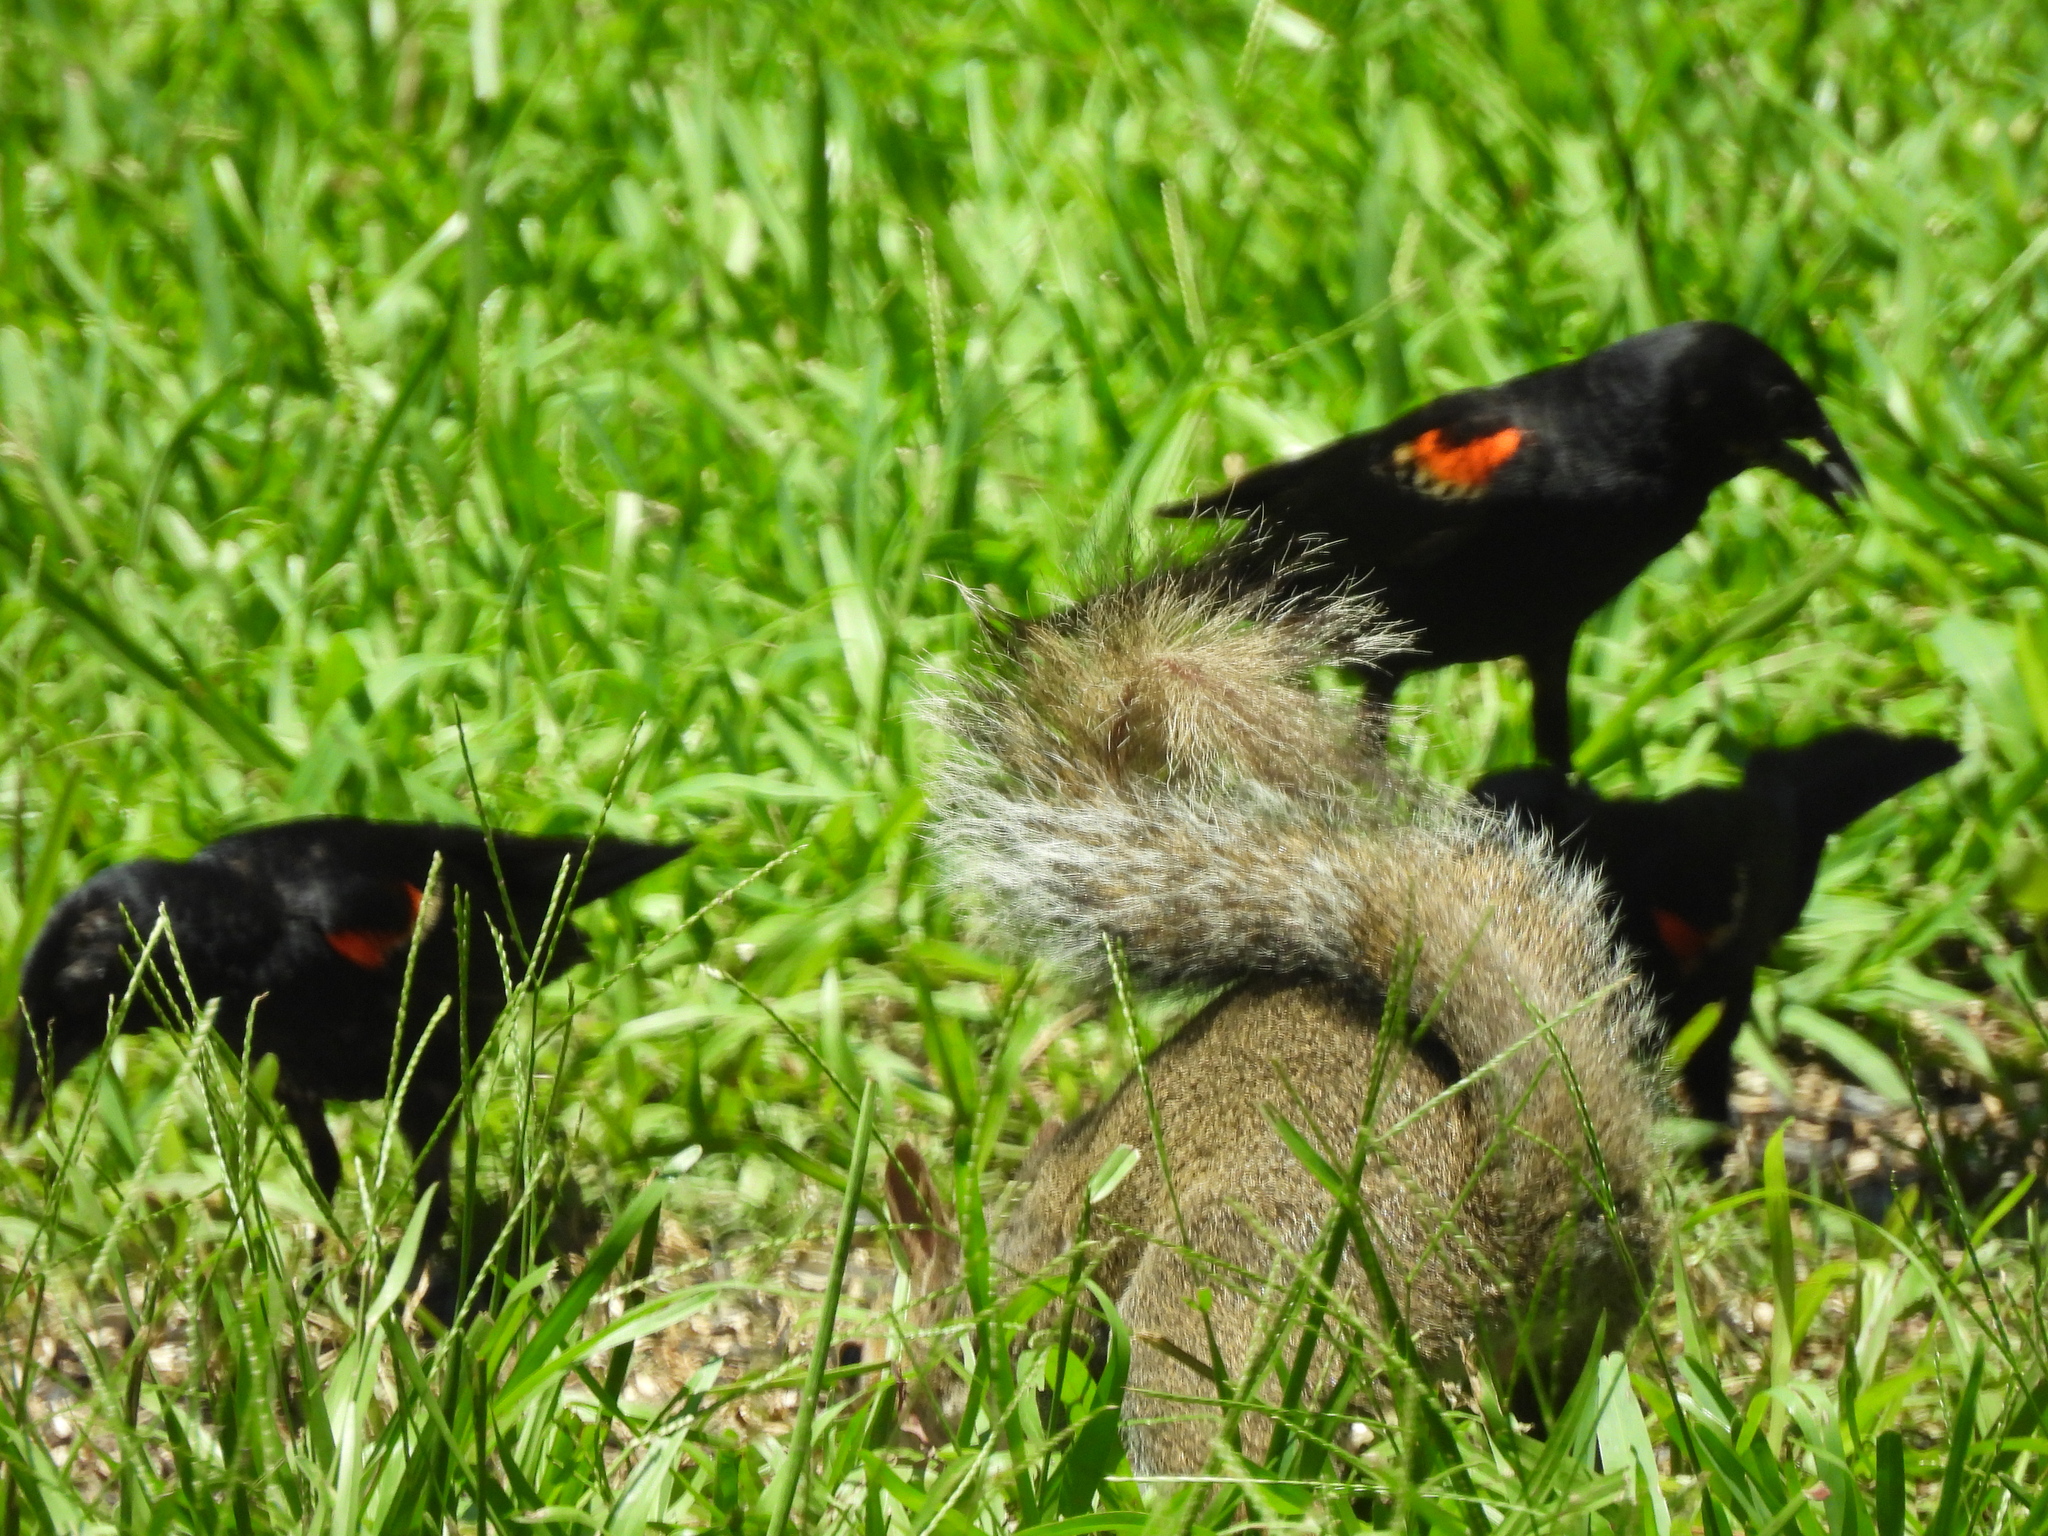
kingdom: Animalia
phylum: Chordata
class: Aves
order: Passeriformes
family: Icteridae
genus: Agelaius
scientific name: Agelaius phoeniceus
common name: Red-winged blackbird
